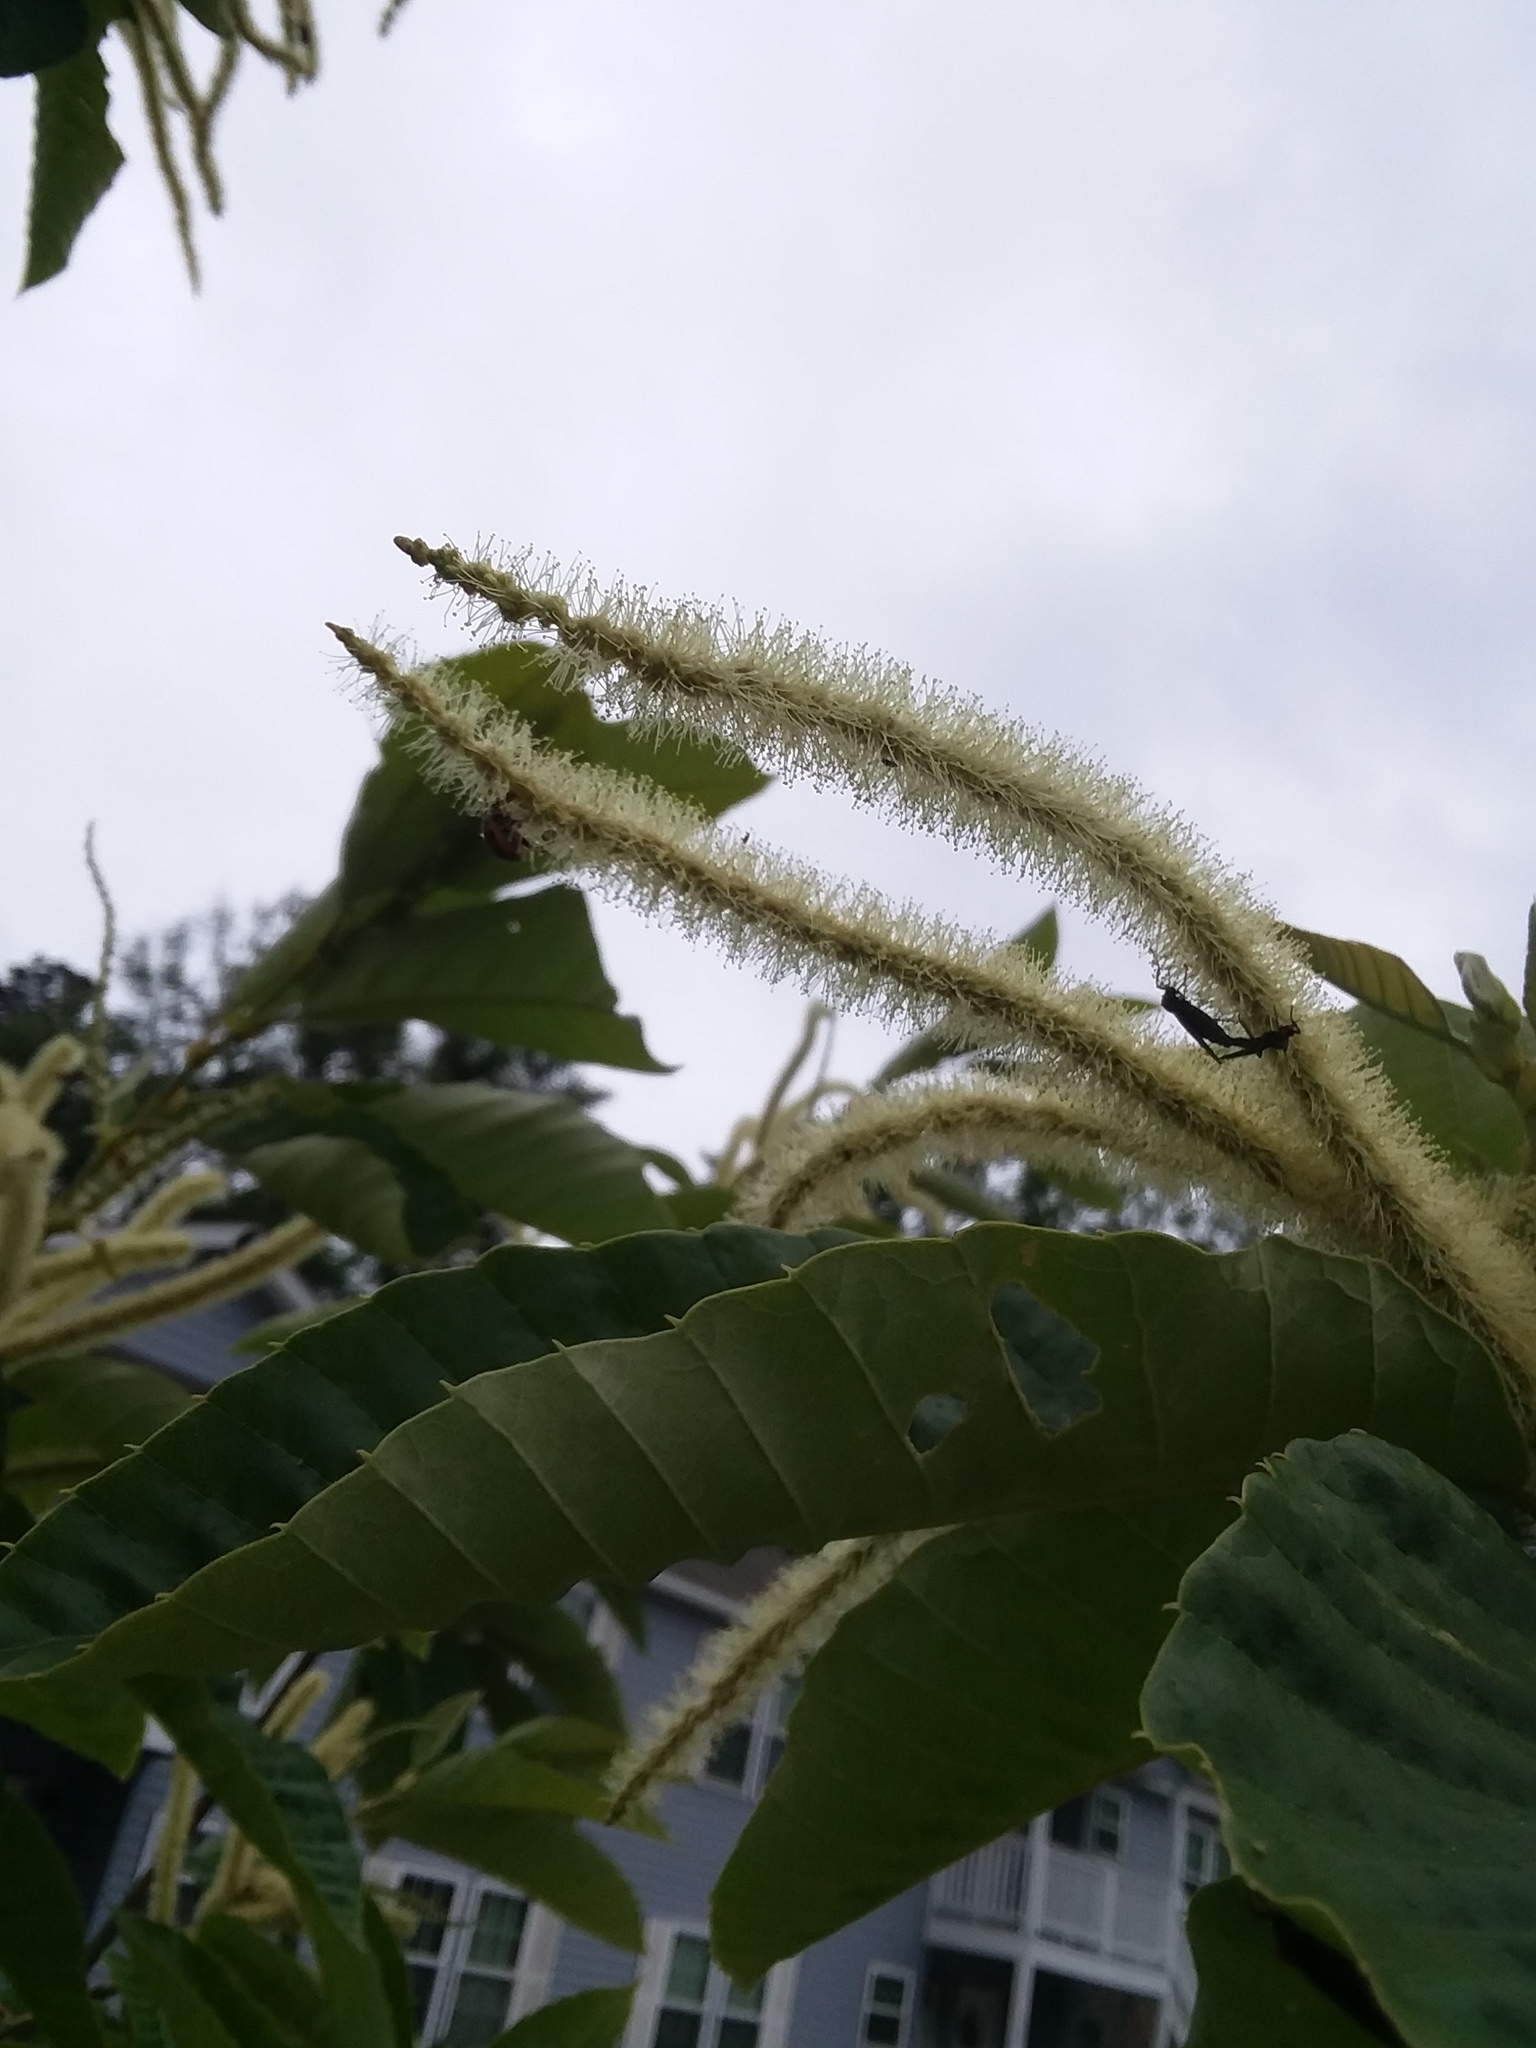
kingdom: Animalia
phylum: Arthropoda
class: Insecta
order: Diptera
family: Bibionidae
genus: Plecia
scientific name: Plecia nearctica
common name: March fly
